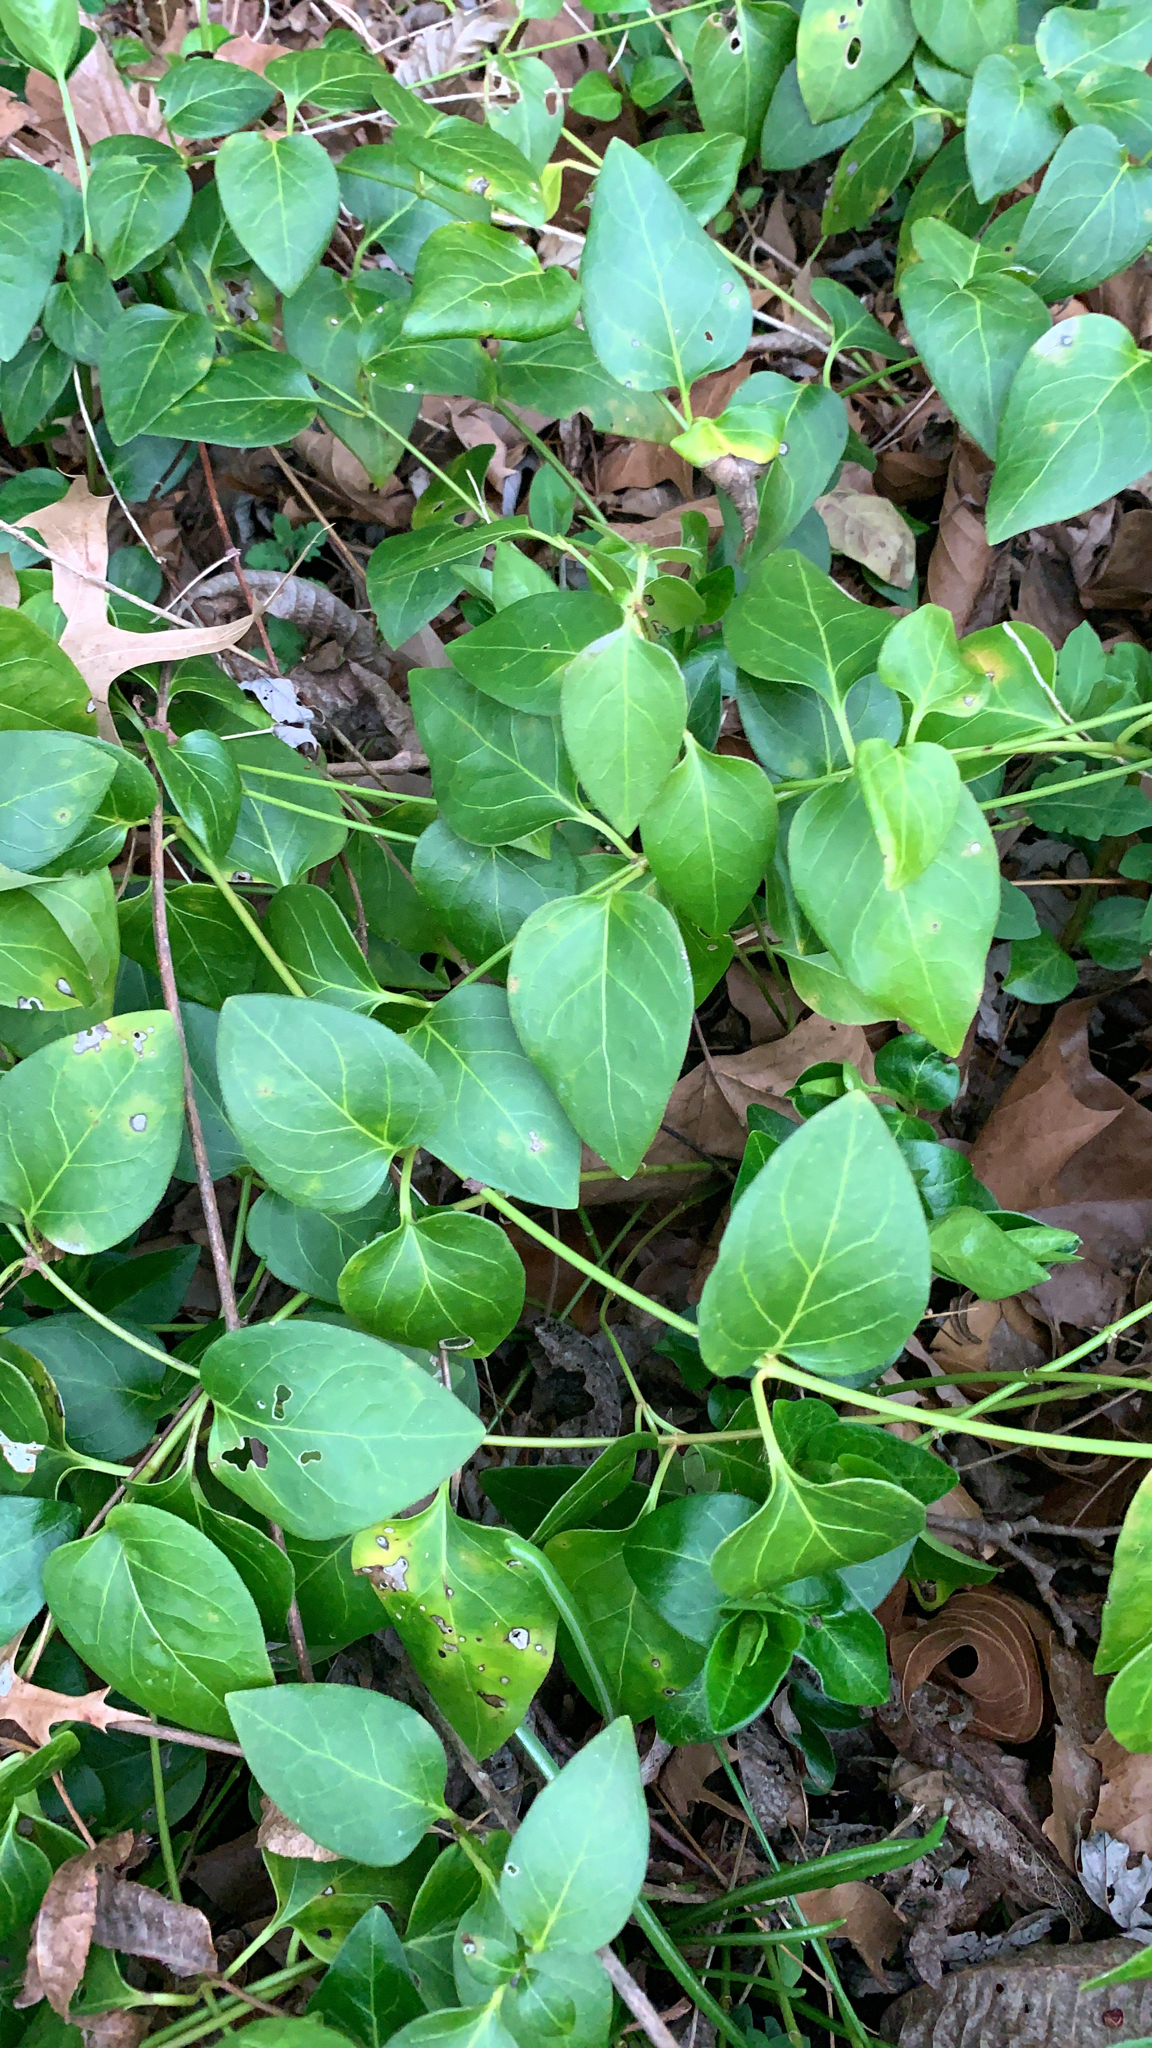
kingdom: Plantae
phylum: Tracheophyta
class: Magnoliopsida
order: Gentianales
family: Apocynaceae
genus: Vinca
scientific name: Vinca major
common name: Greater periwinkle
